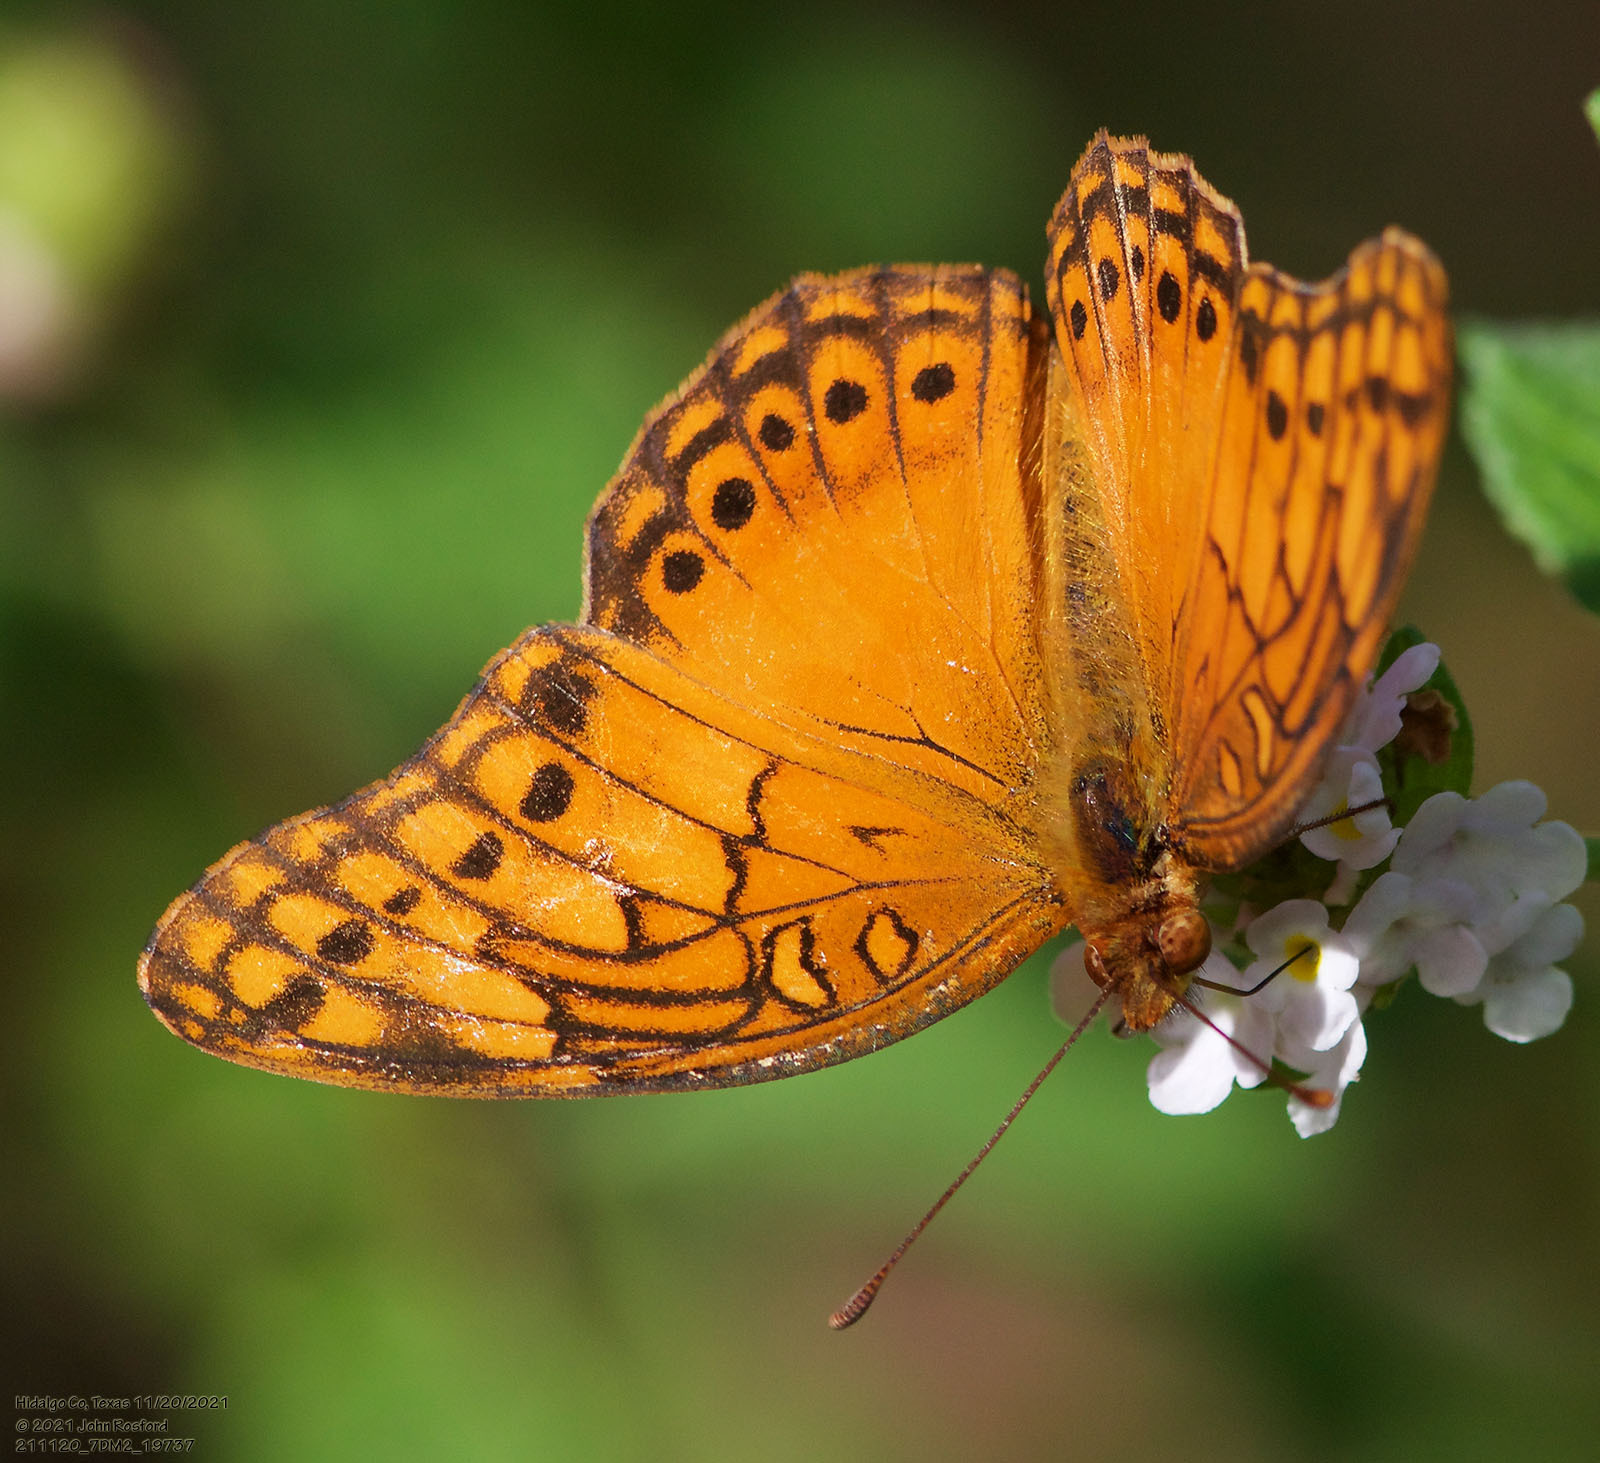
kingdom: Animalia
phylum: Arthropoda
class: Insecta
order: Lepidoptera
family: Nymphalidae
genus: Euptoieta
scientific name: Euptoieta hegesia
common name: Mexican fritillary
